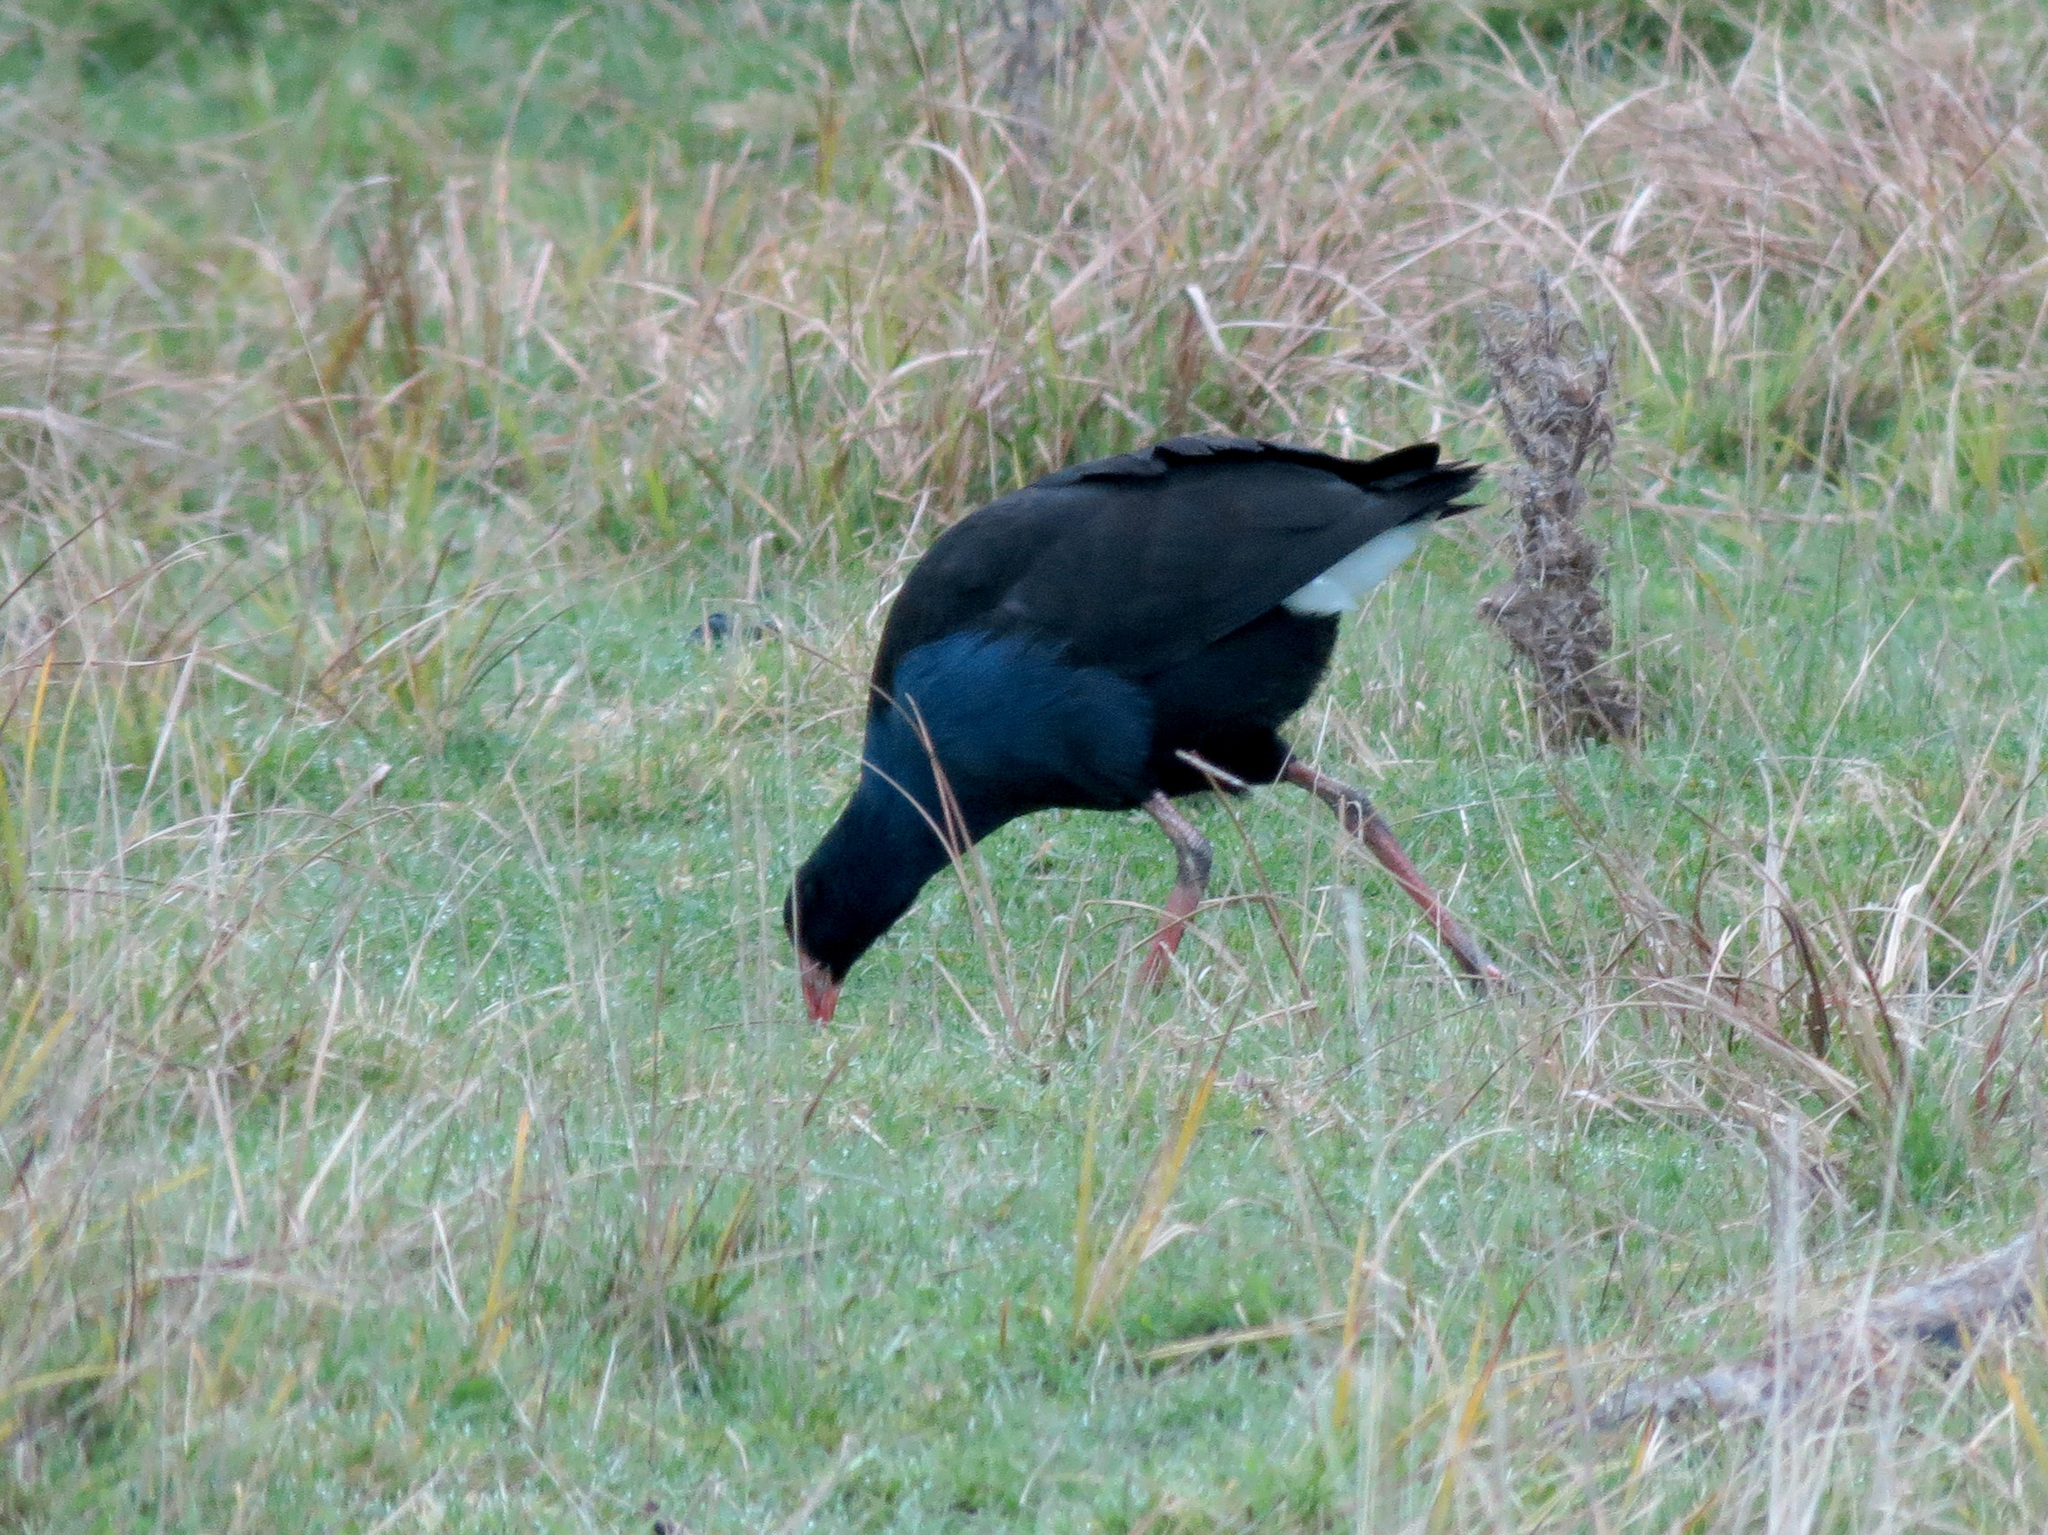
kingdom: Animalia
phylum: Chordata
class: Aves
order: Gruiformes
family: Rallidae
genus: Porphyrio
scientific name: Porphyrio melanotus
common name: Australasian swamphen
